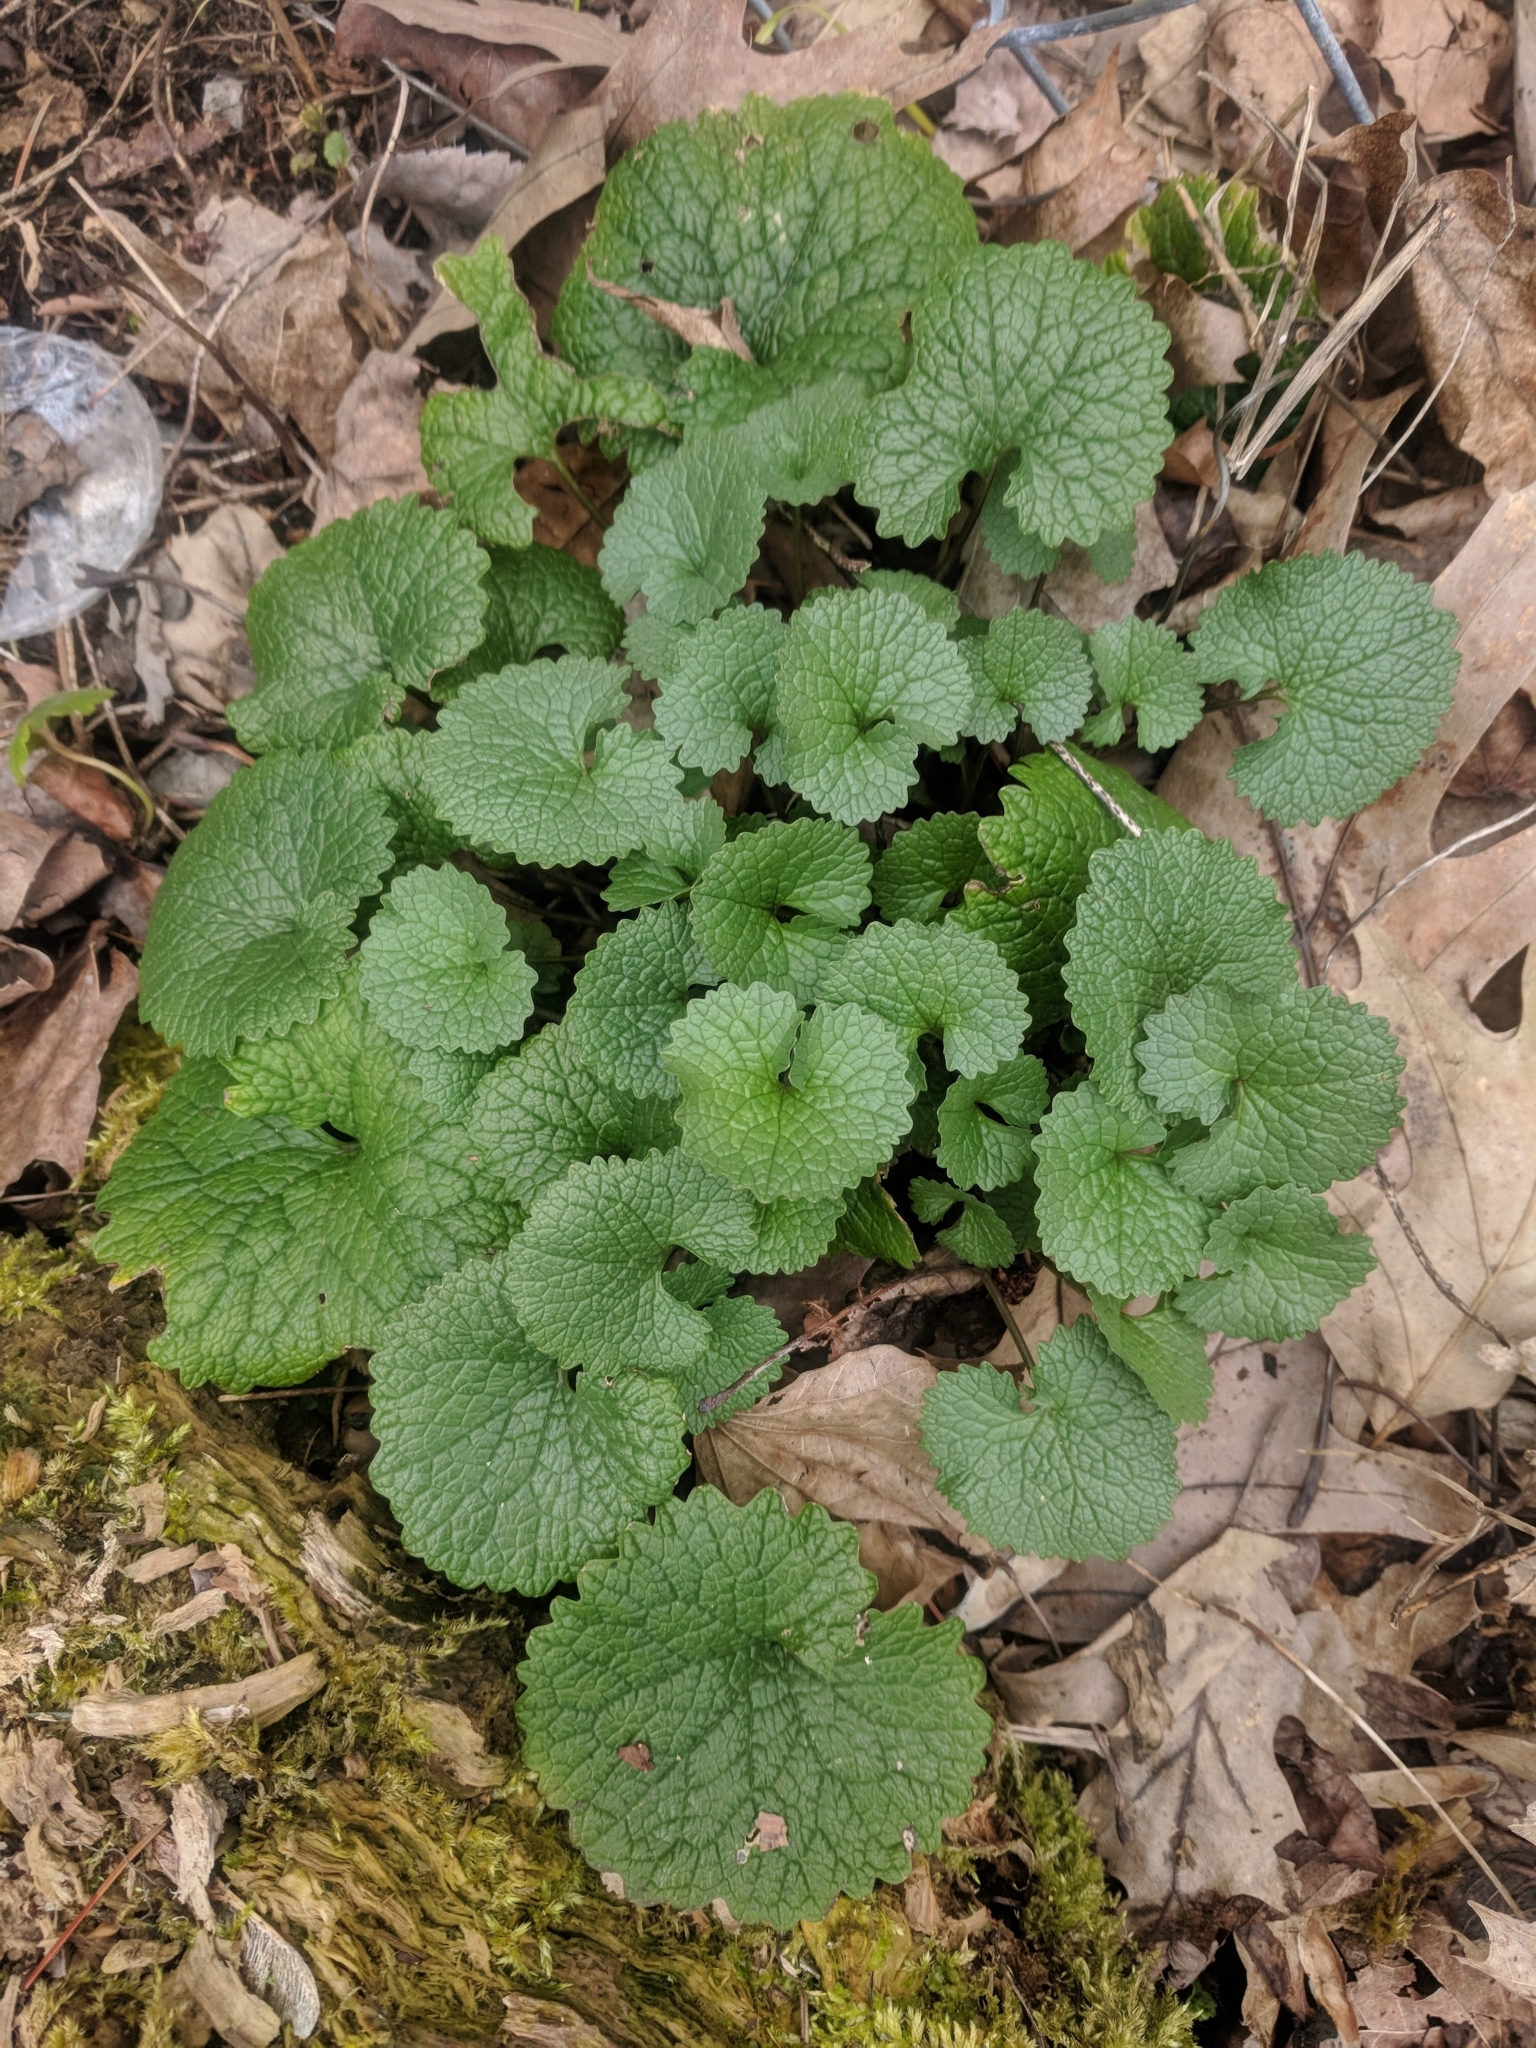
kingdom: Plantae
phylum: Tracheophyta
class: Magnoliopsida
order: Brassicales
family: Brassicaceae
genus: Alliaria
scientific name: Alliaria petiolata
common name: Garlic mustard
